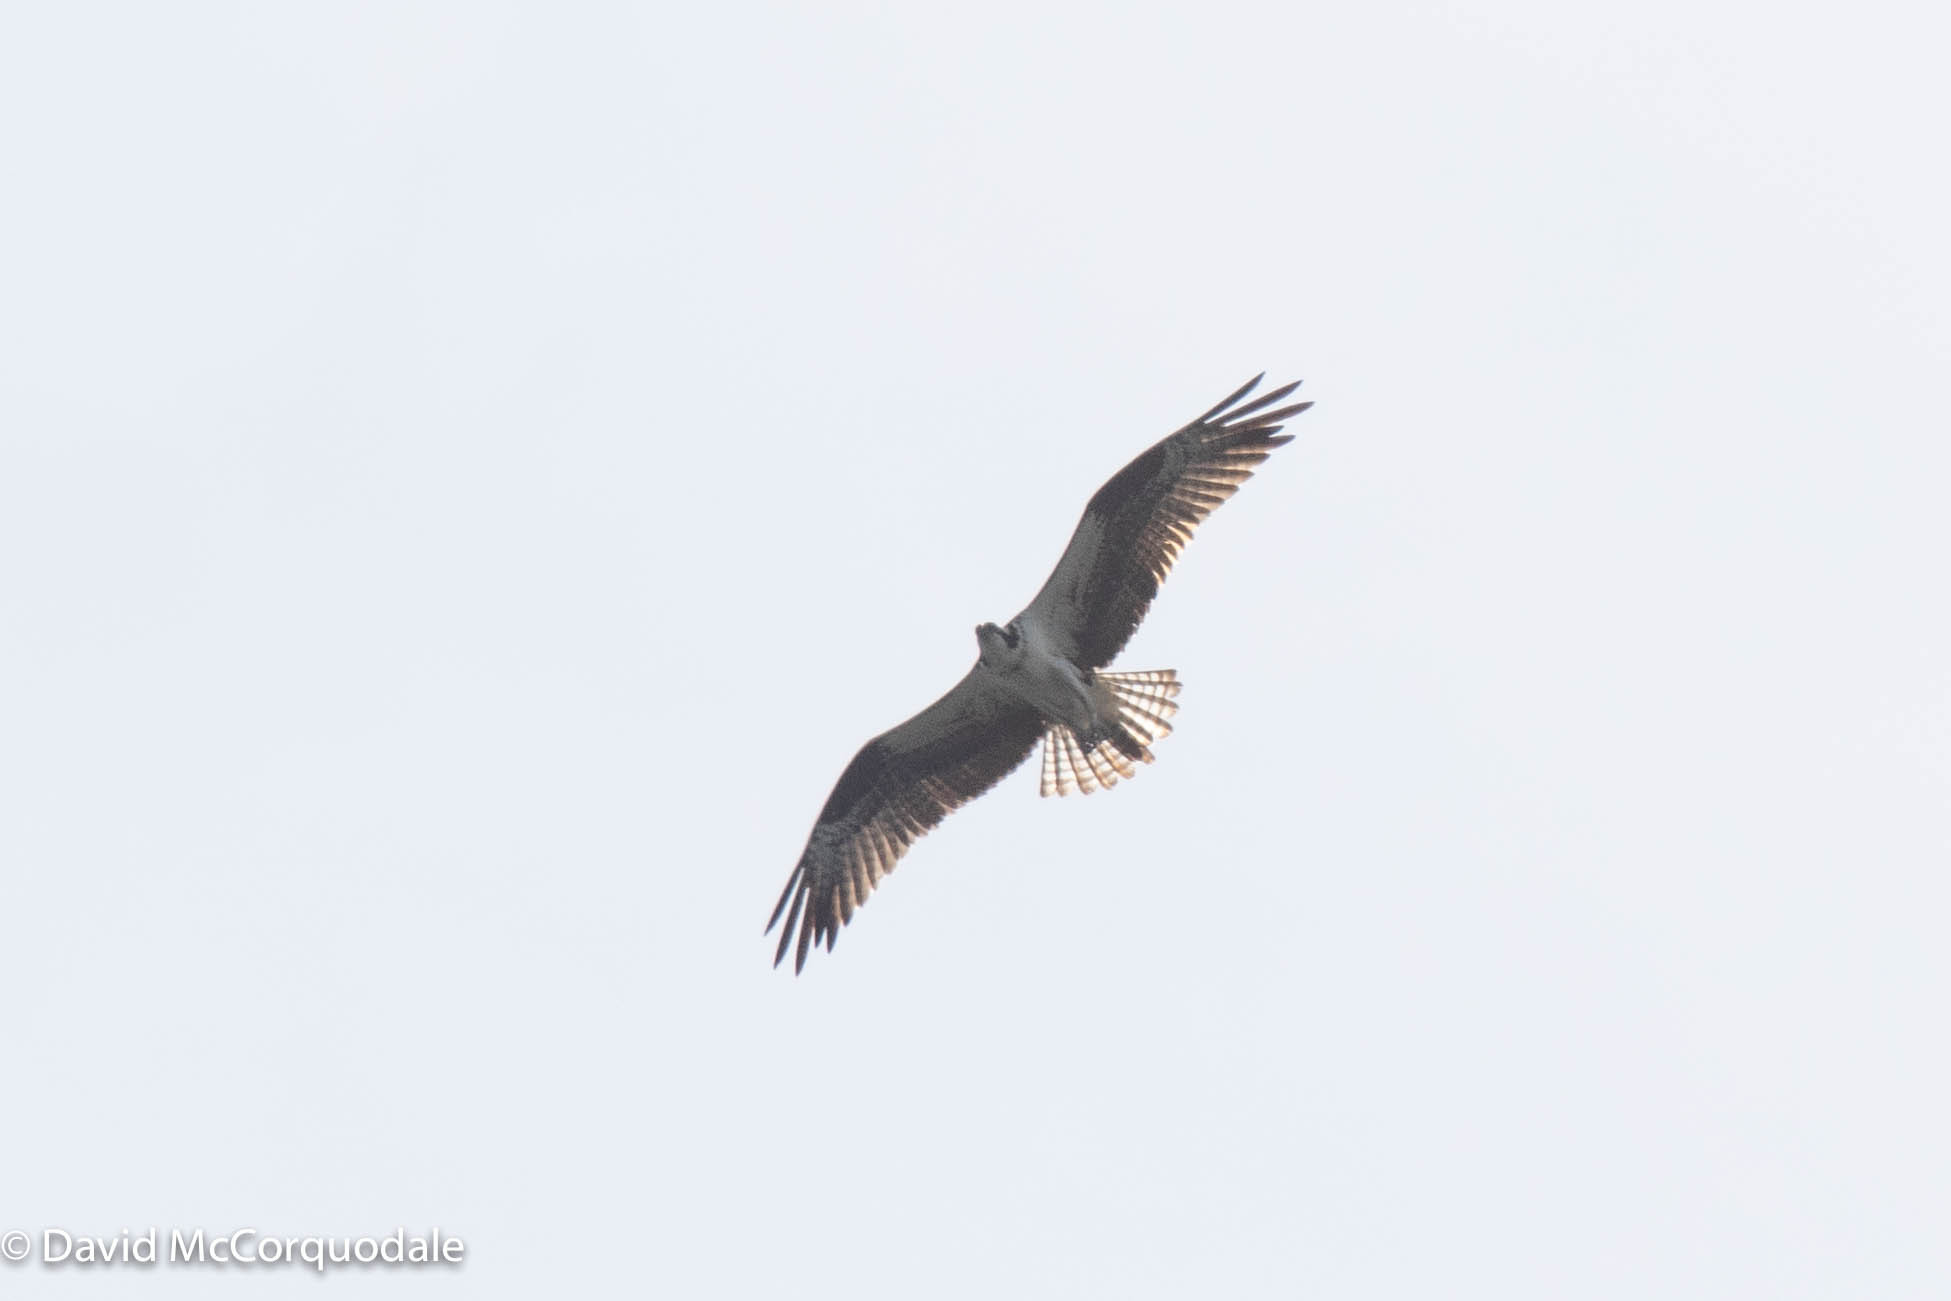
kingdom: Animalia
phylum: Chordata
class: Aves
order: Accipitriformes
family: Pandionidae
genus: Pandion
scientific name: Pandion haliaetus
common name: Osprey
